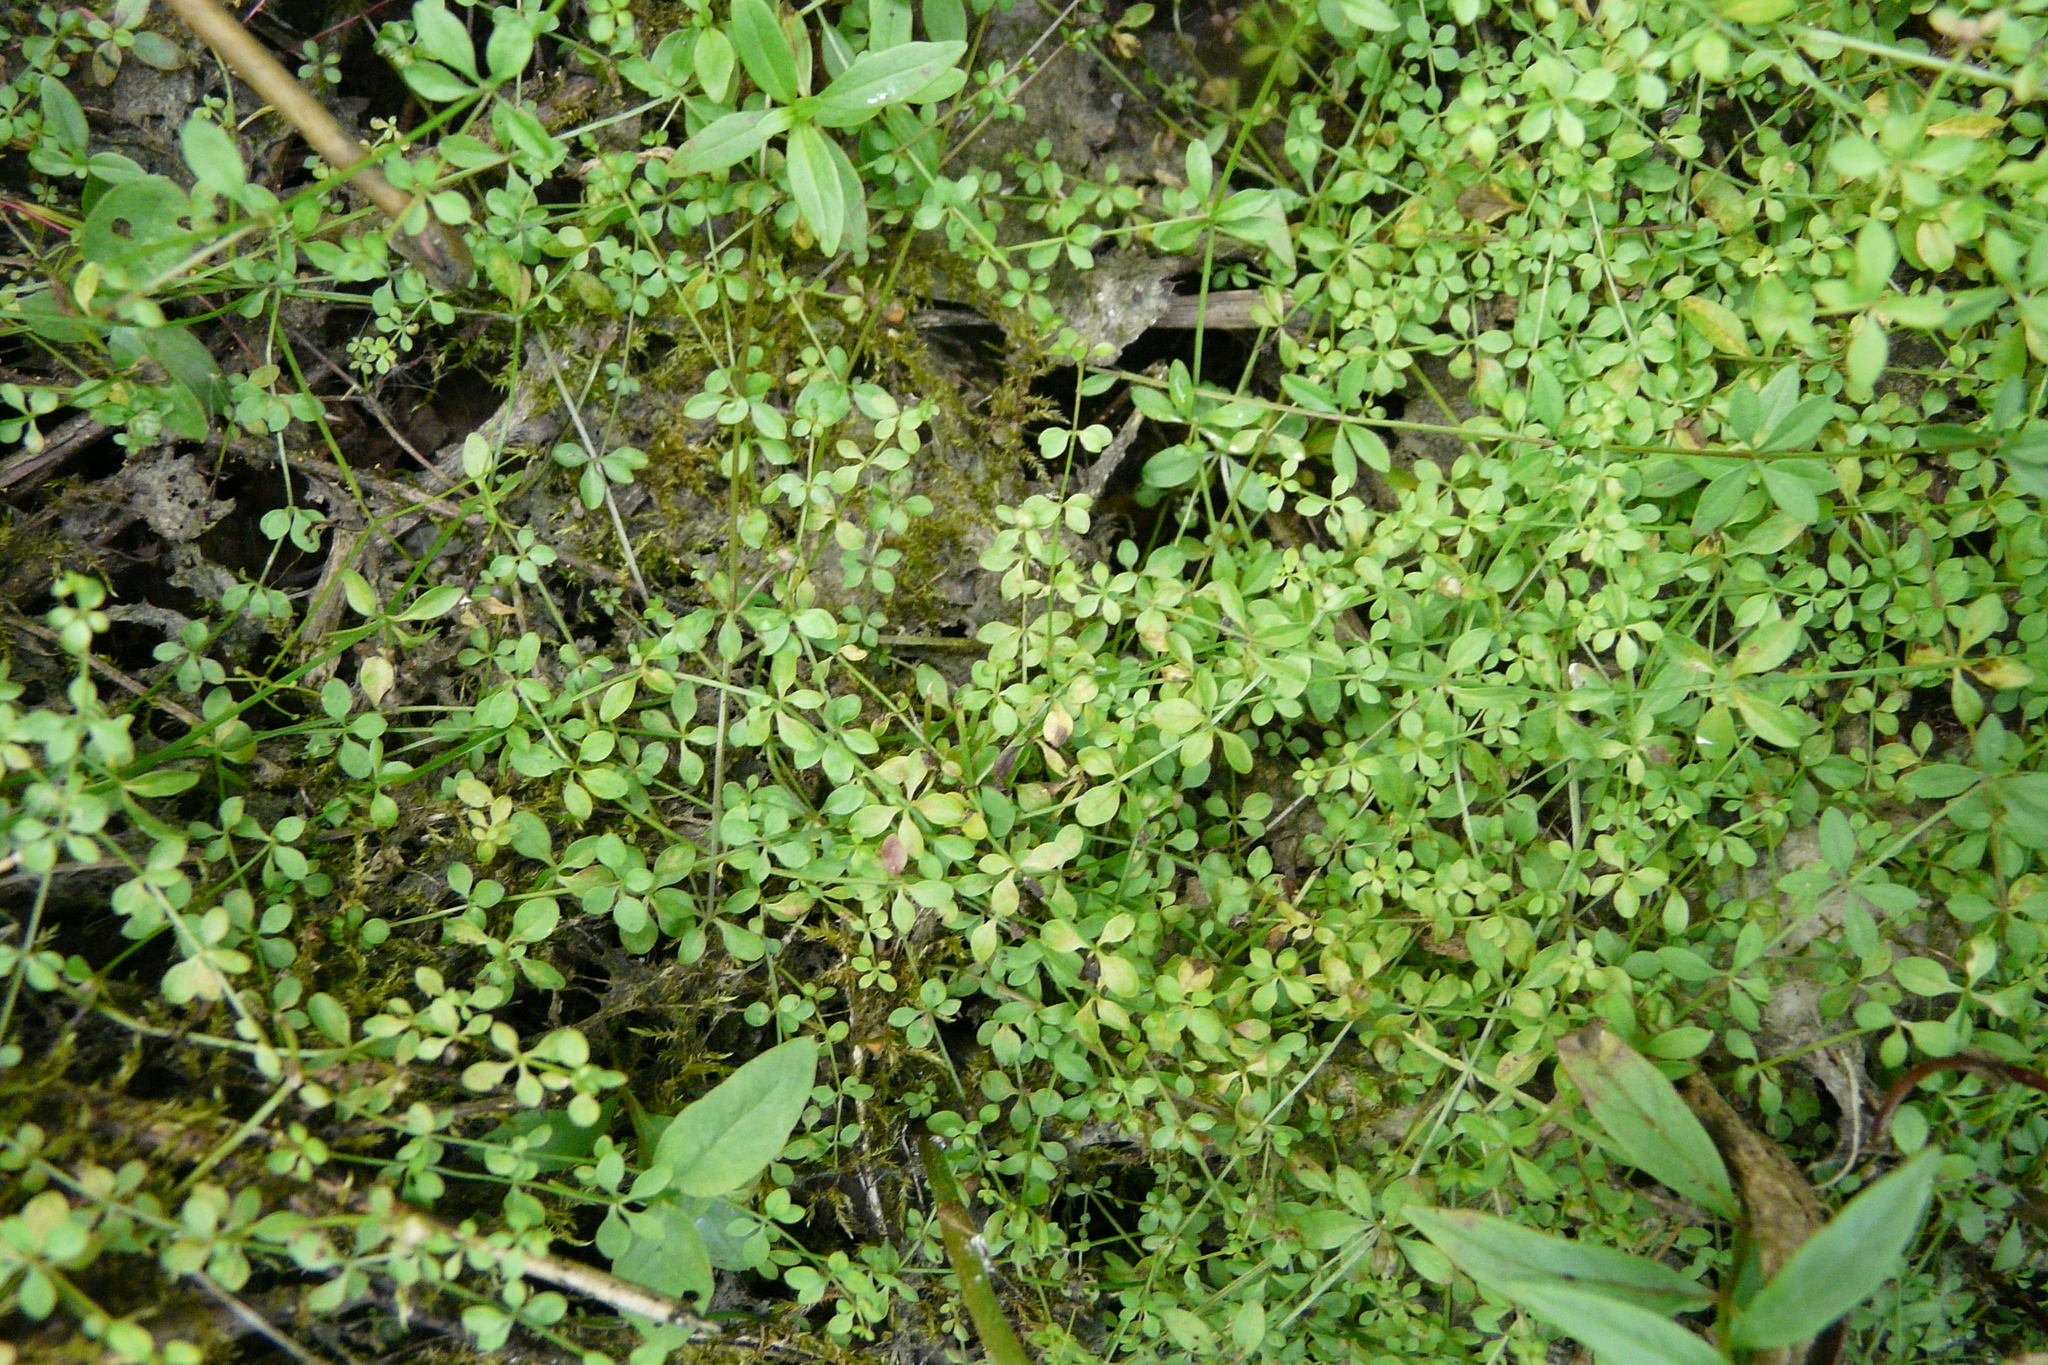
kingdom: Plantae
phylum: Tracheophyta
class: Magnoliopsida
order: Gentianales
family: Rubiaceae
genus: Galium
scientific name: Galium palustre
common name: Common marsh-bedstraw
